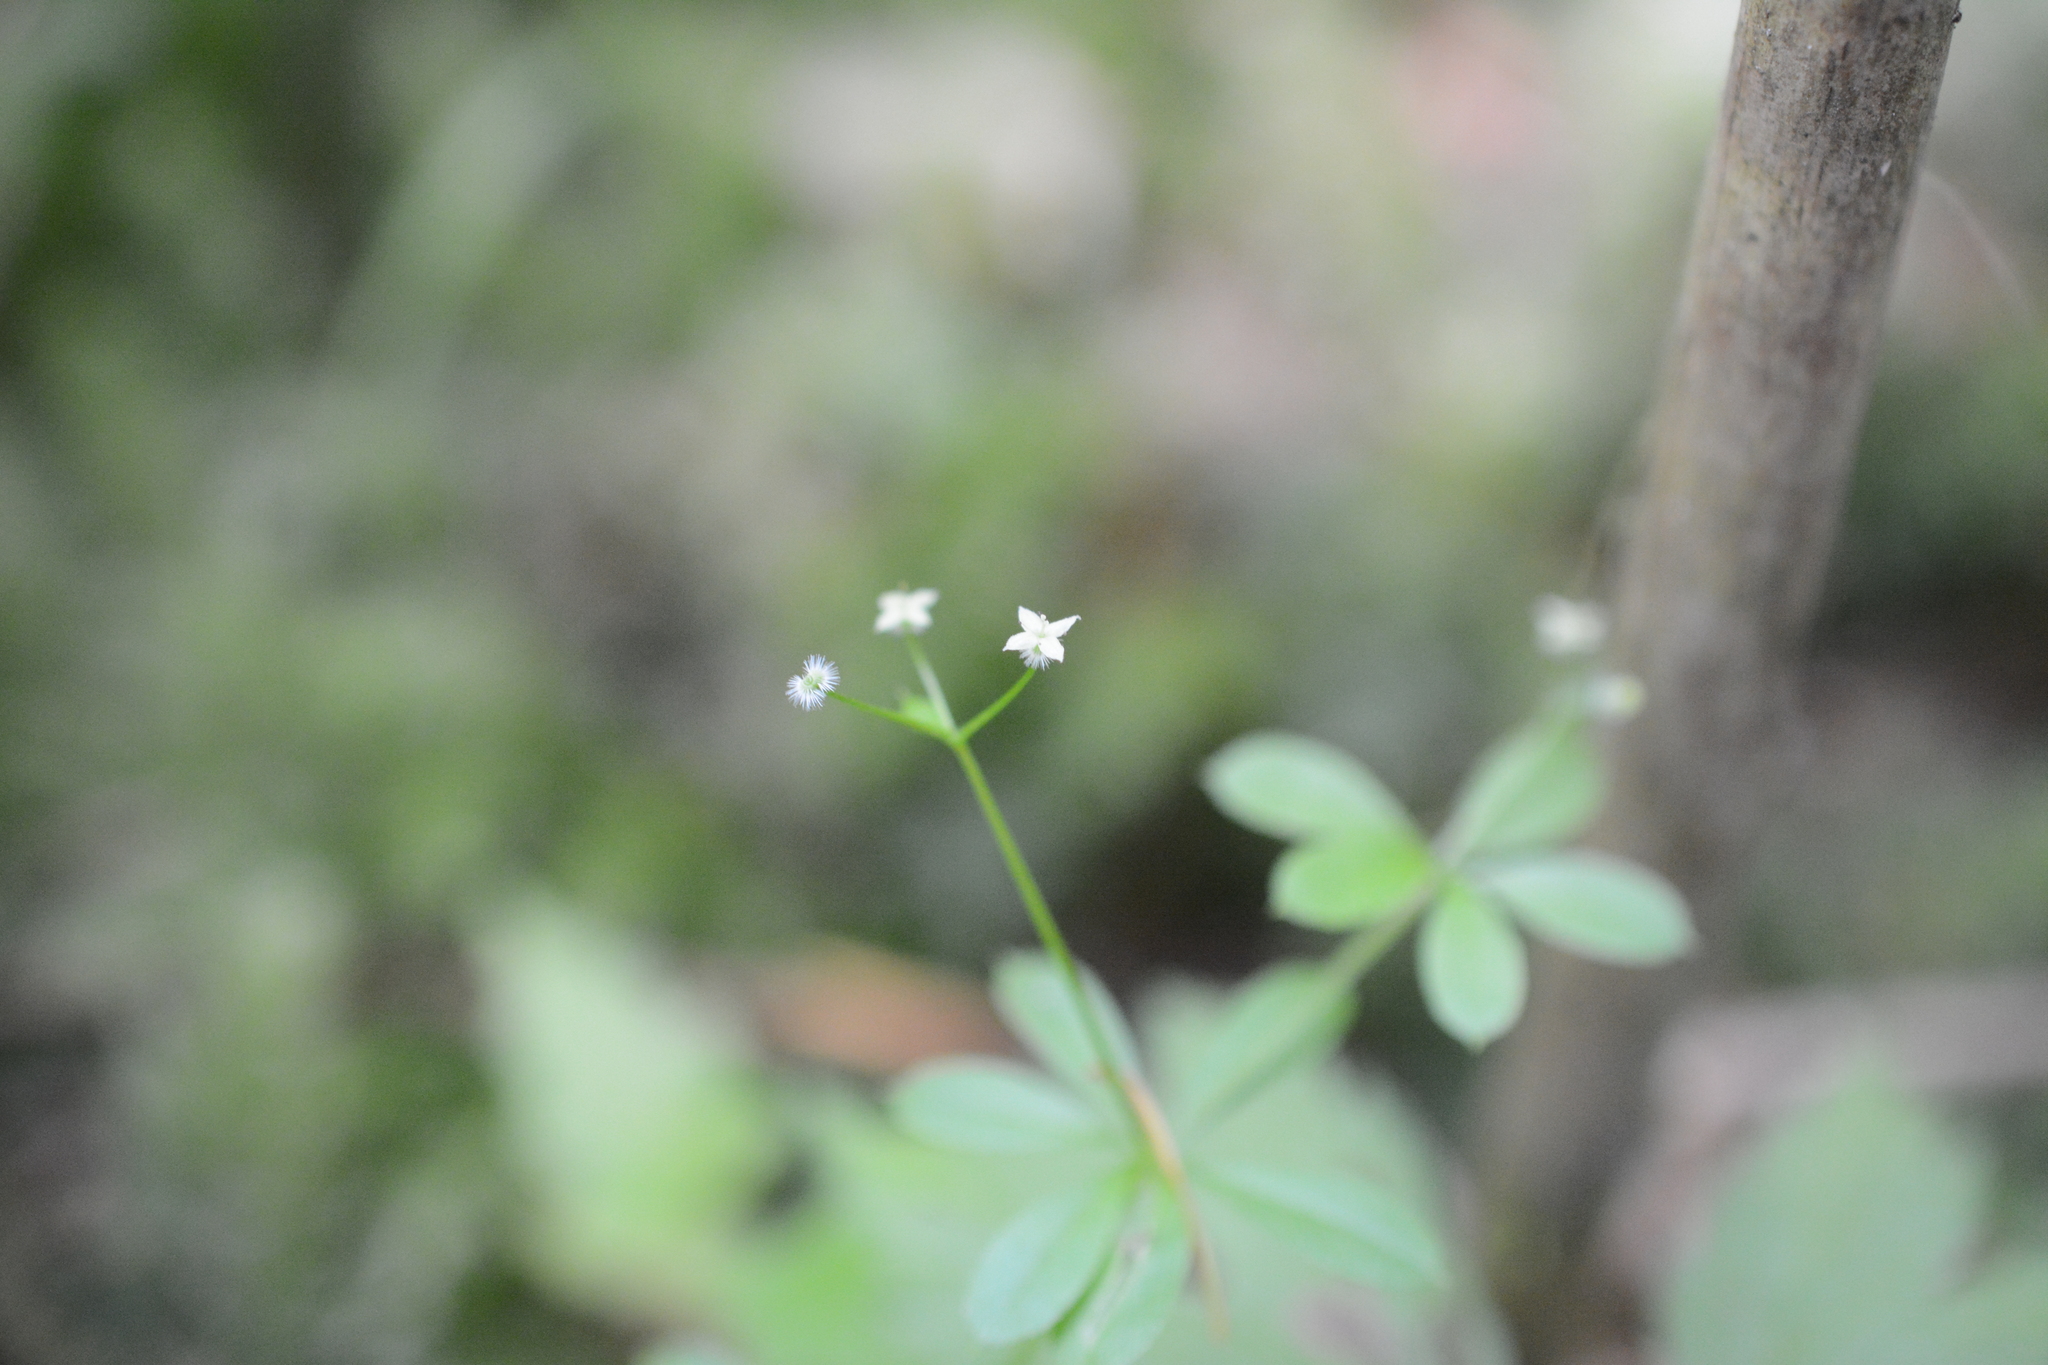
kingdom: Plantae
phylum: Tracheophyta
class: Magnoliopsida
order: Gentianales
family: Rubiaceae
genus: Galium
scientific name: Galium triflorum
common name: Fragrant bedstraw
